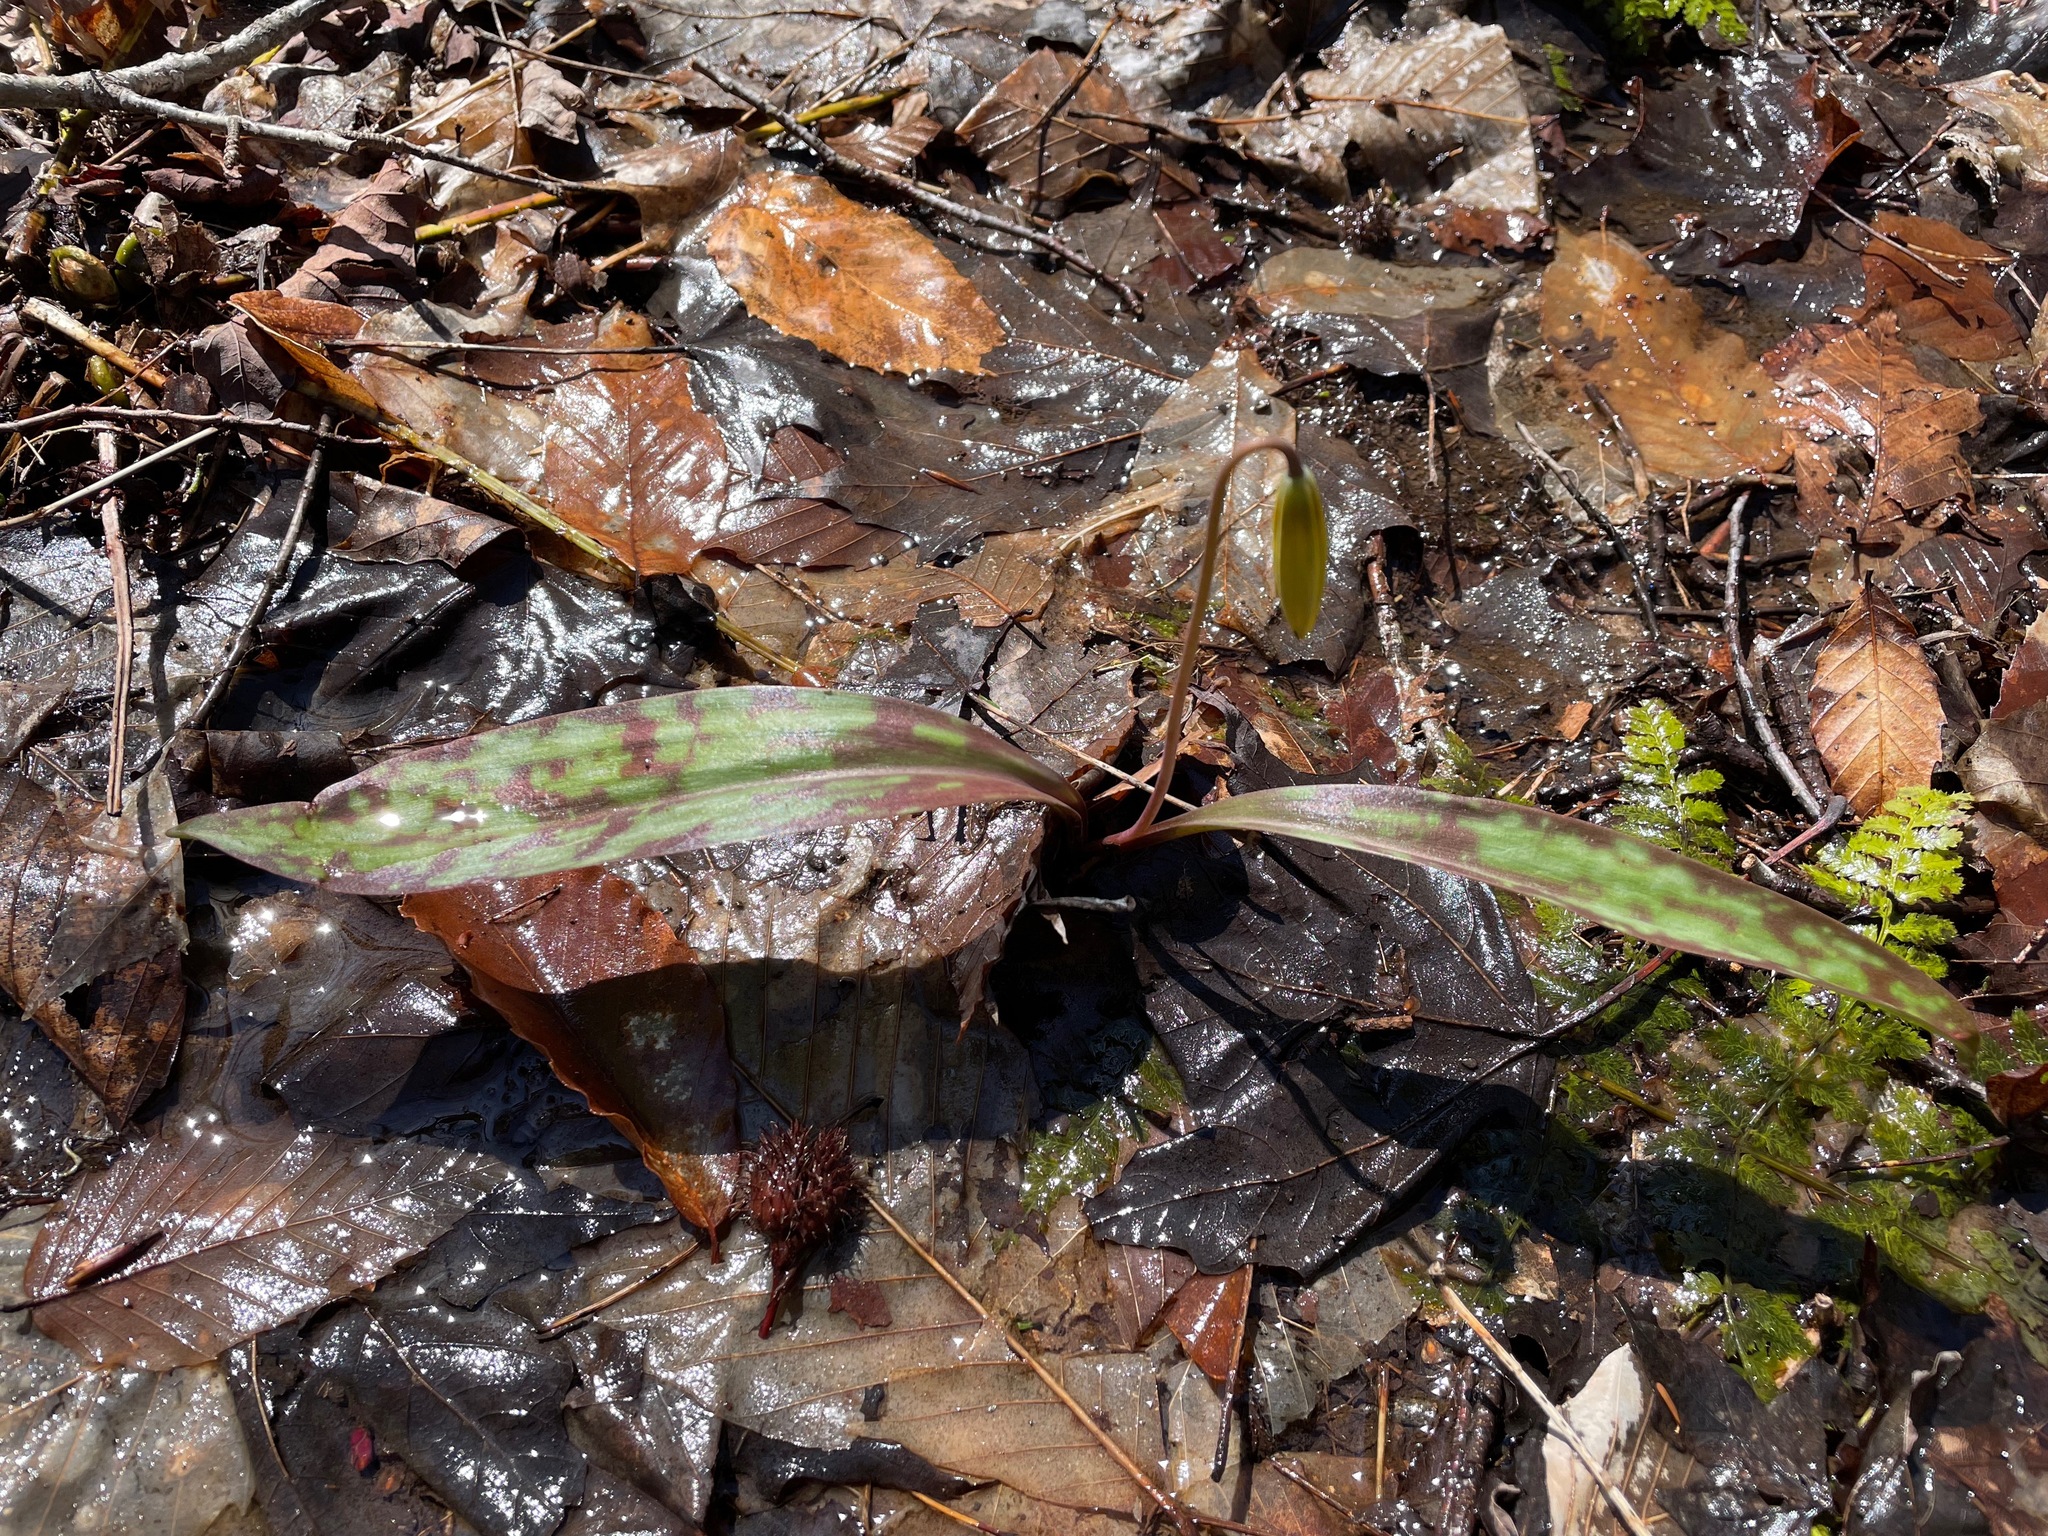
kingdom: Plantae
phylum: Tracheophyta
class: Liliopsida
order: Liliales
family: Liliaceae
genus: Erythronium
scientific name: Erythronium americanum
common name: Yellow adder's-tongue
